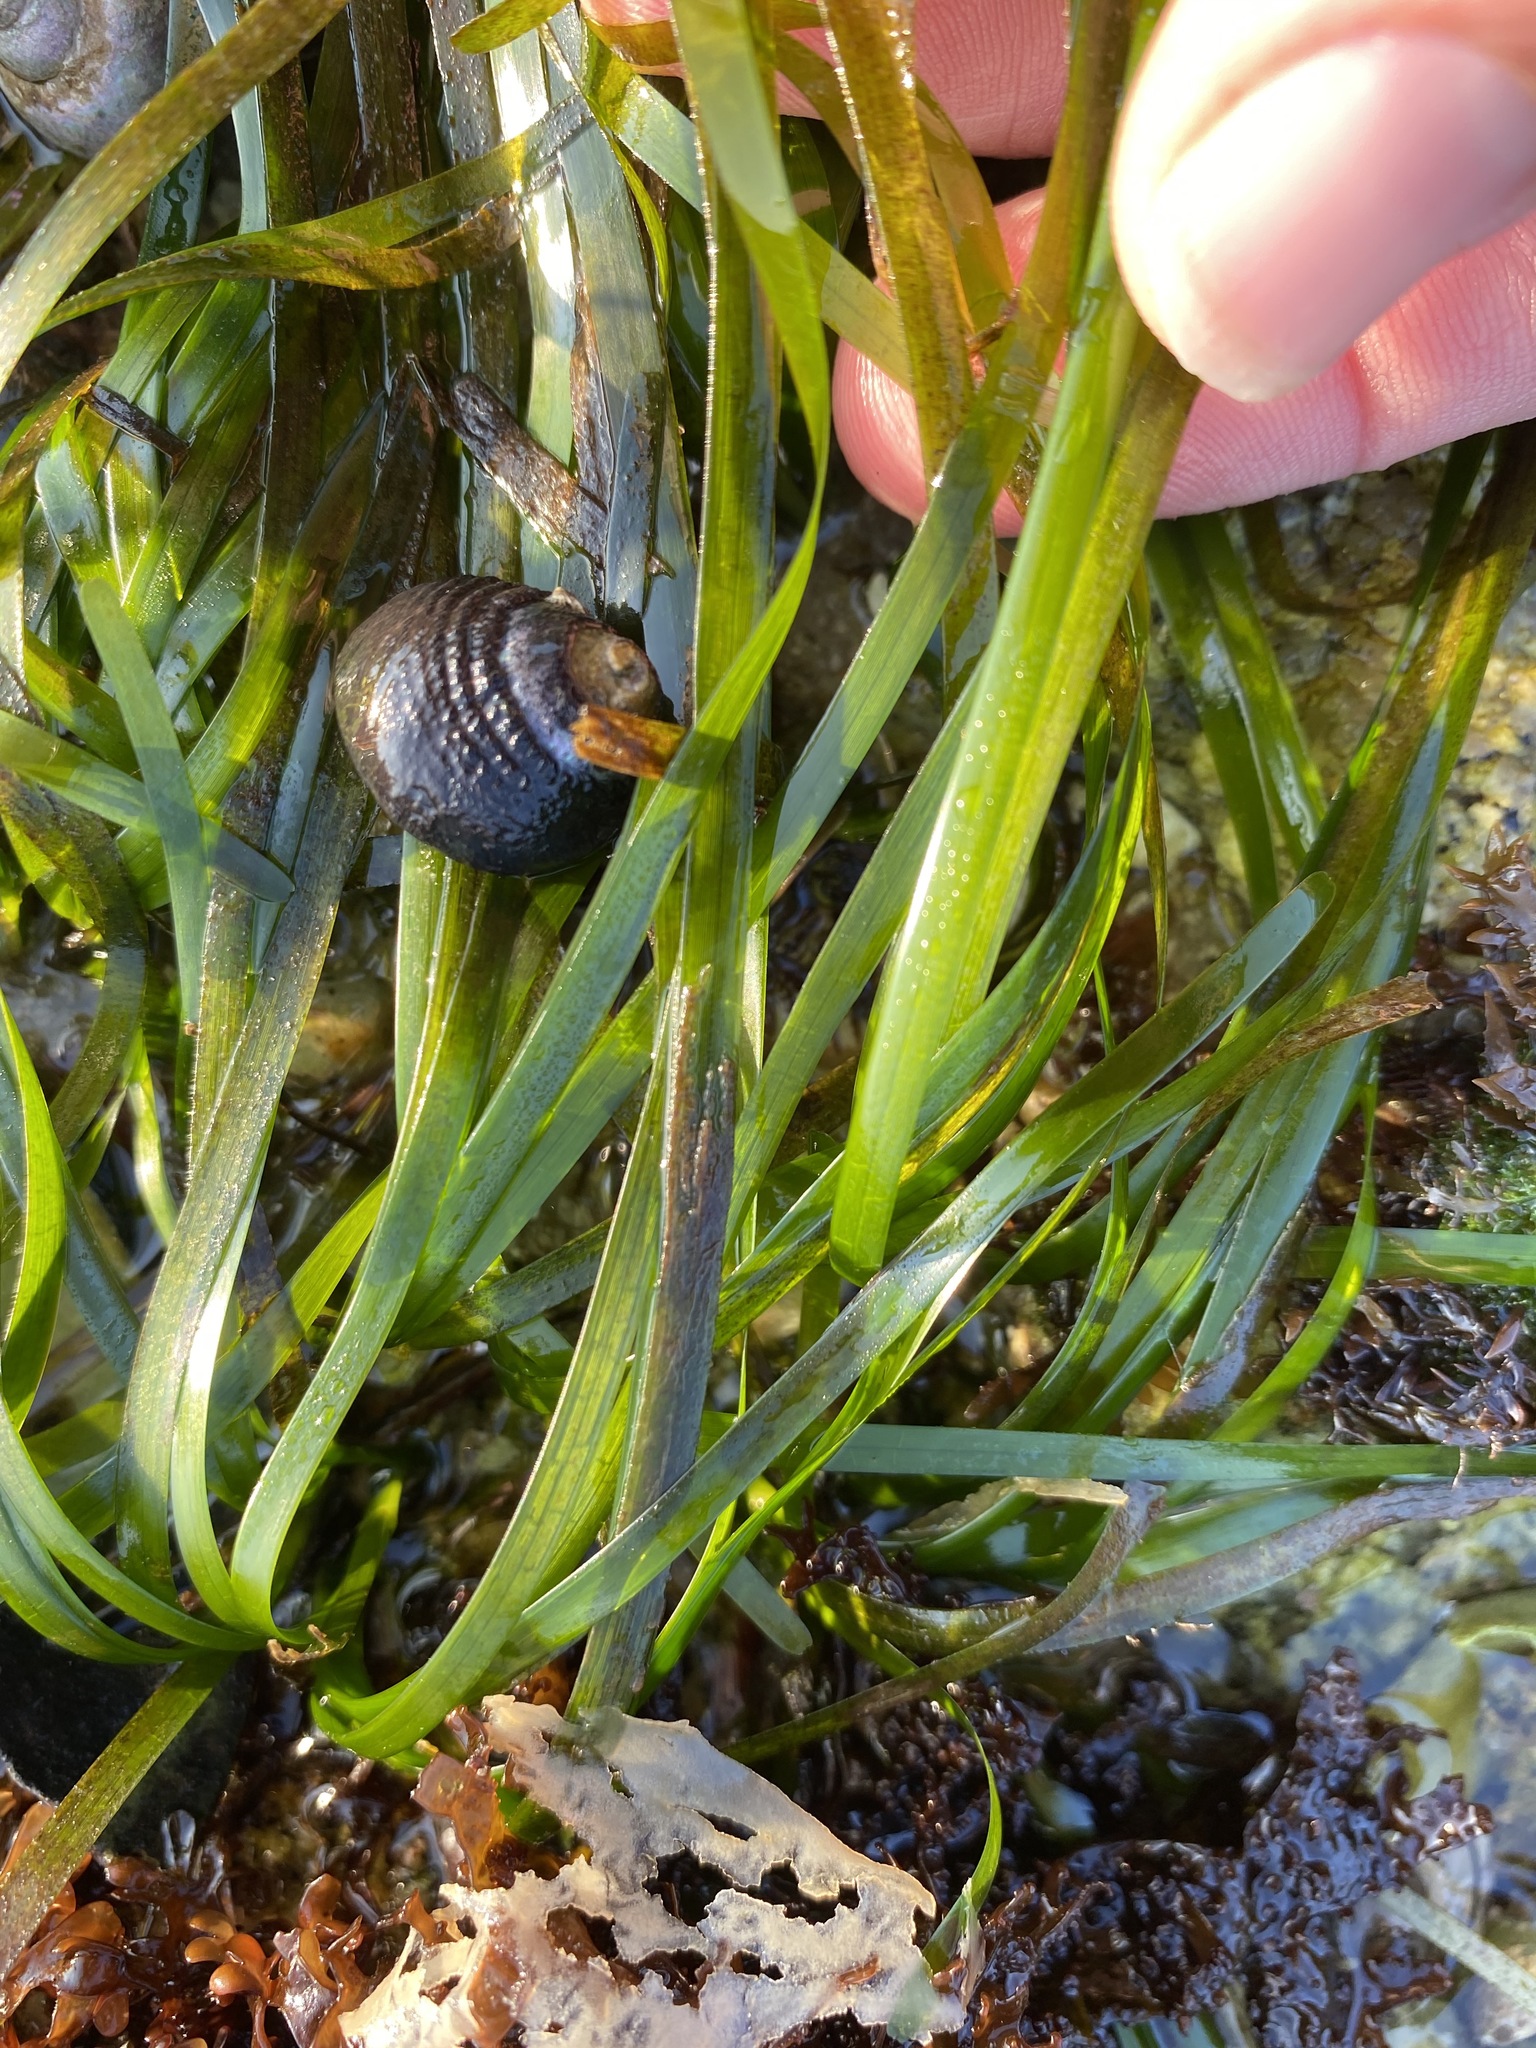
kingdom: Plantae
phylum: Tracheophyta
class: Liliopsida
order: Alismatales
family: Zosteraceae
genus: Phyllospadix
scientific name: Phyllospadix scouleri
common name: Species code: ps
